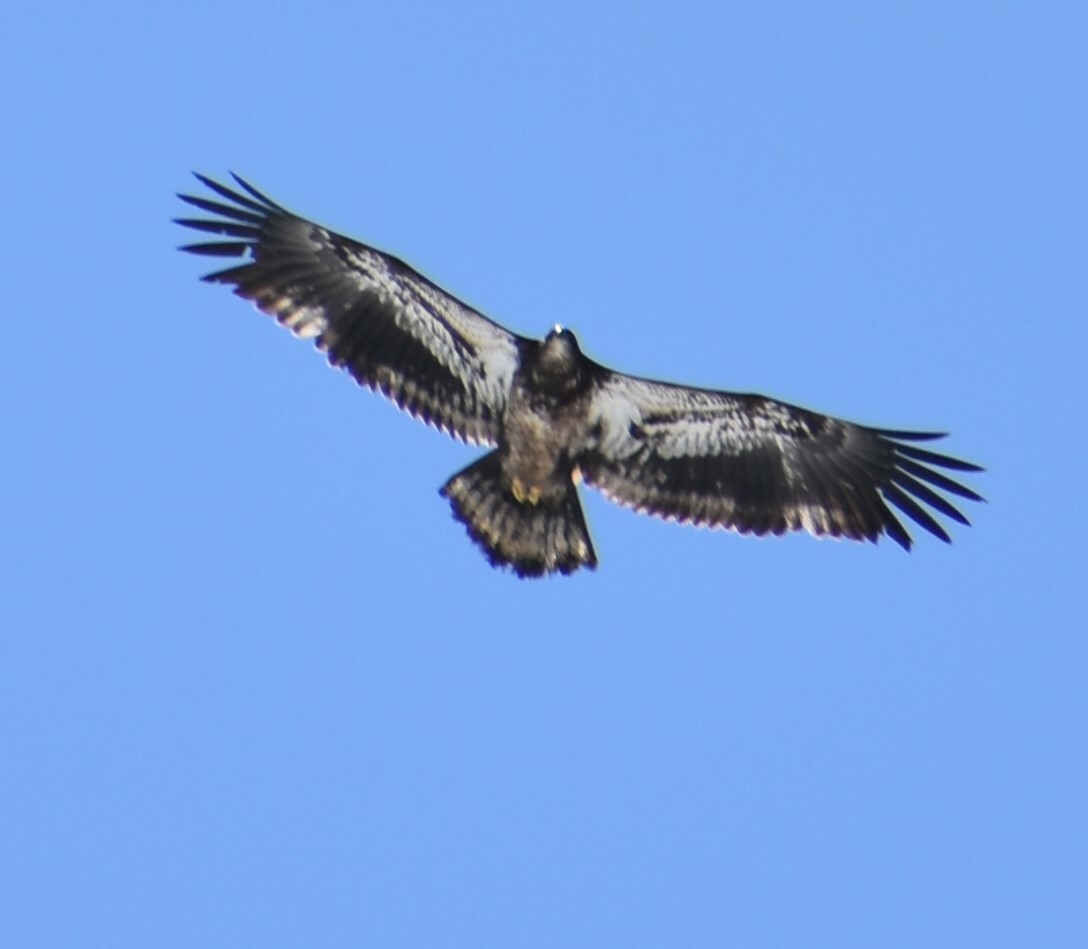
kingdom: Animalia
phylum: Chordata
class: Aves
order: Accipitriformes
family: Accipitridae
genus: Haliaeetus
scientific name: Haliaeetus leucocephalus
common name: Bald eagle
